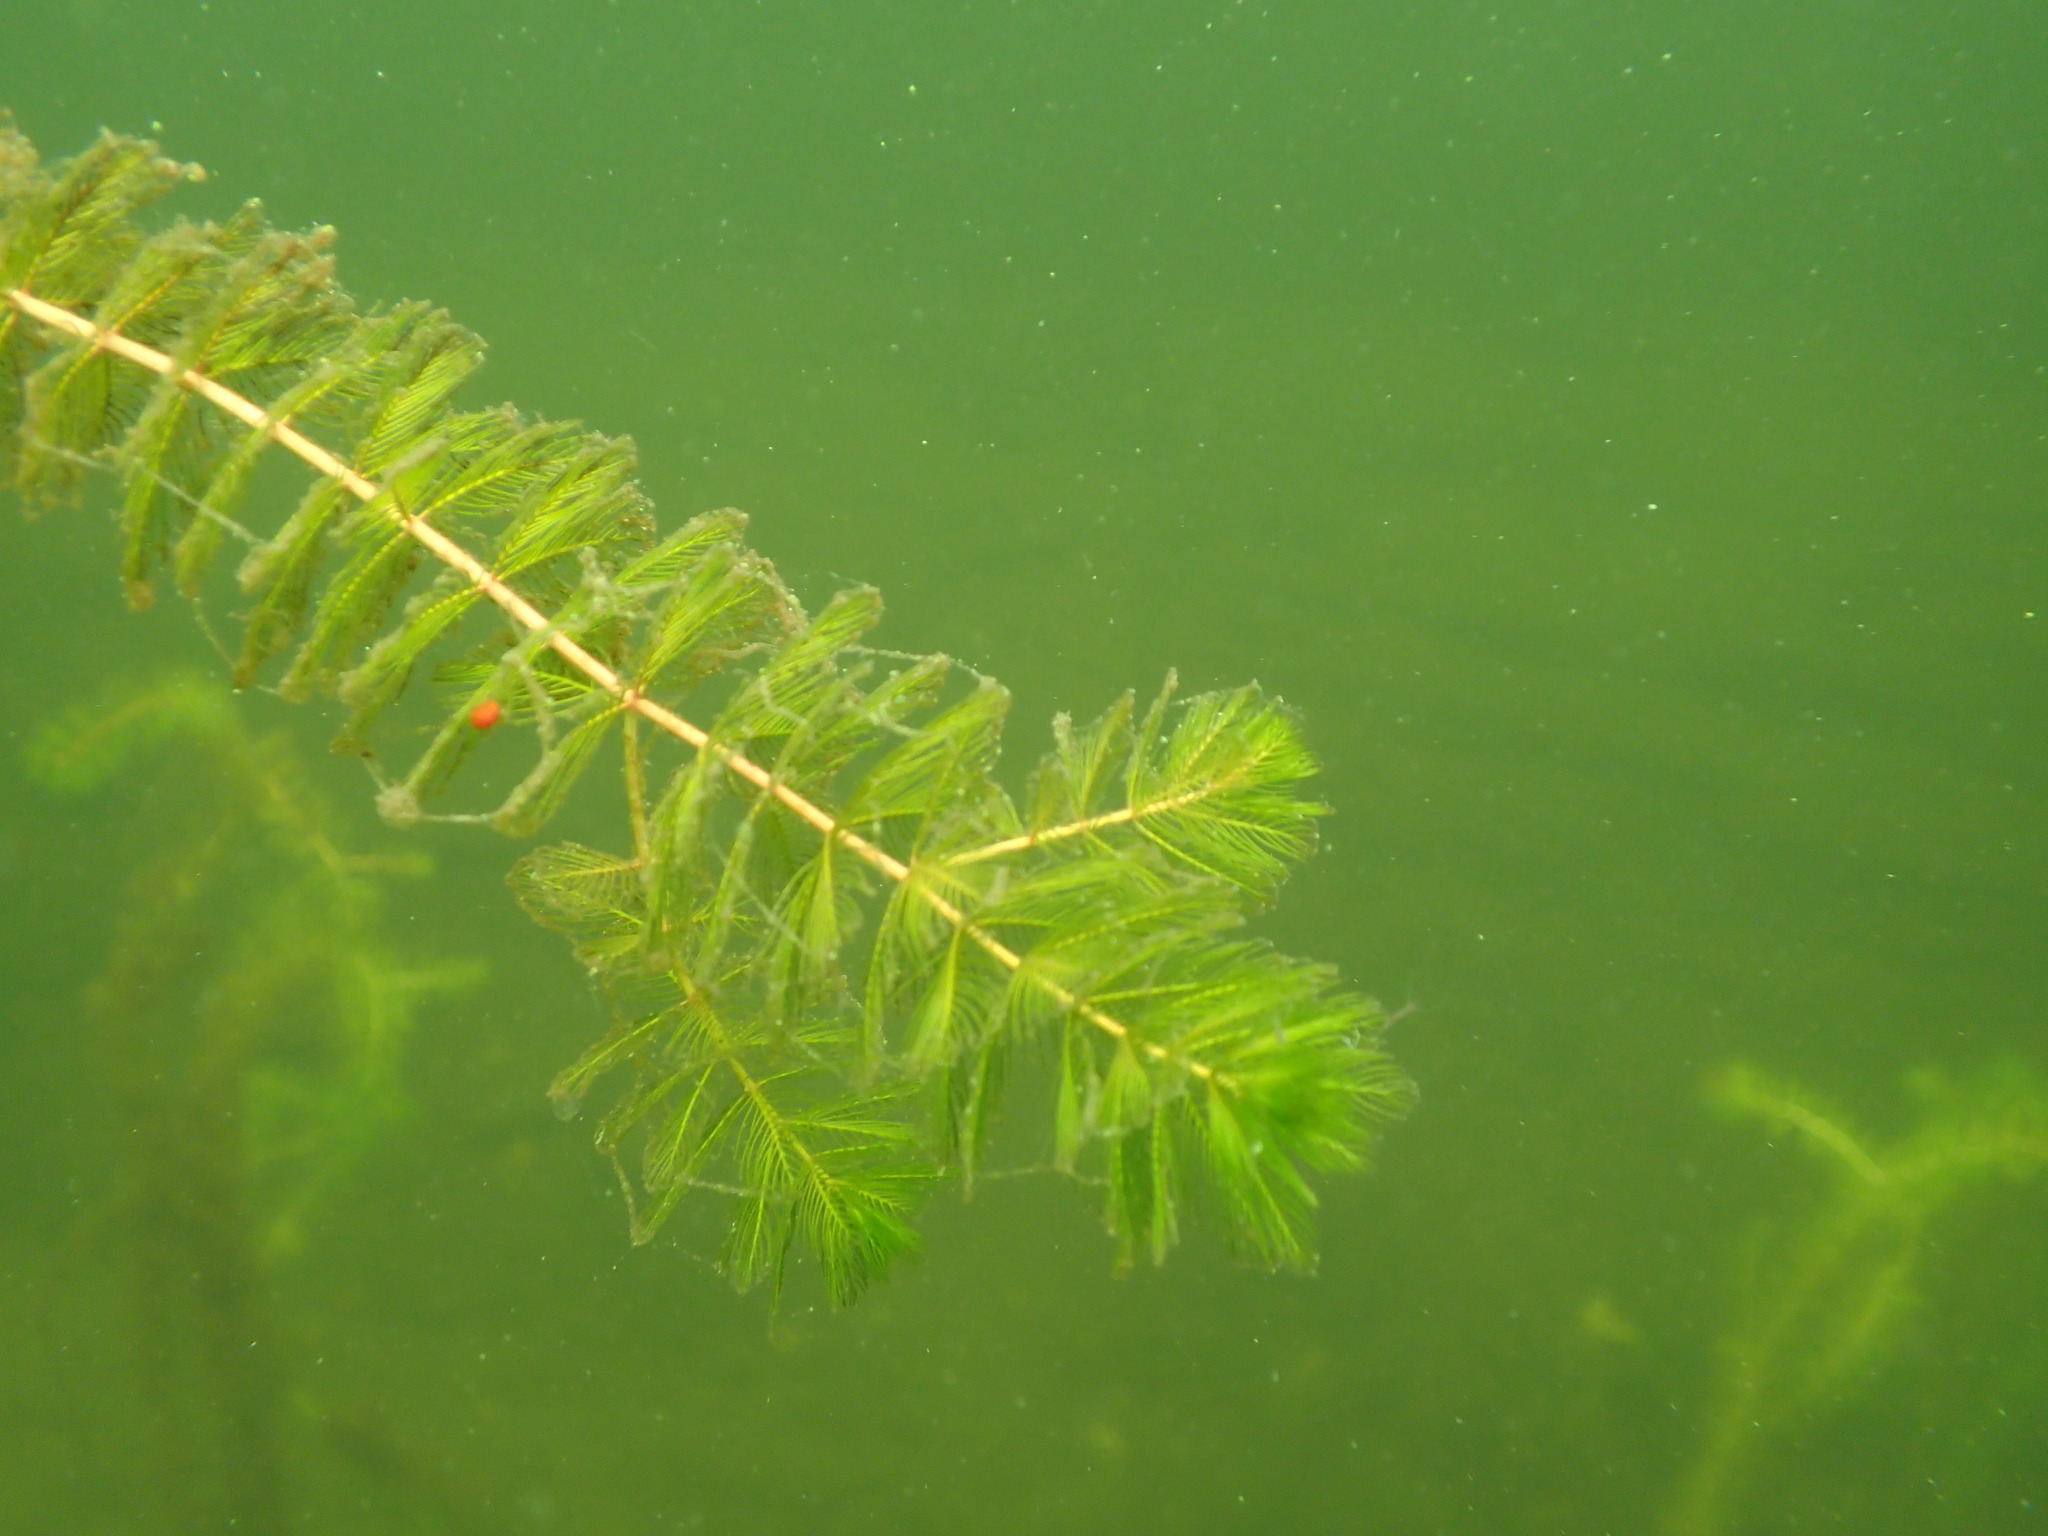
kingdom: Plantae
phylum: Tracheophyta
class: Magnoliopsida
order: Saxifragales
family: Haloragaceae
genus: Myriophyllum
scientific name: Myriophyllum spicatum
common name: Spiked water-milfoil
